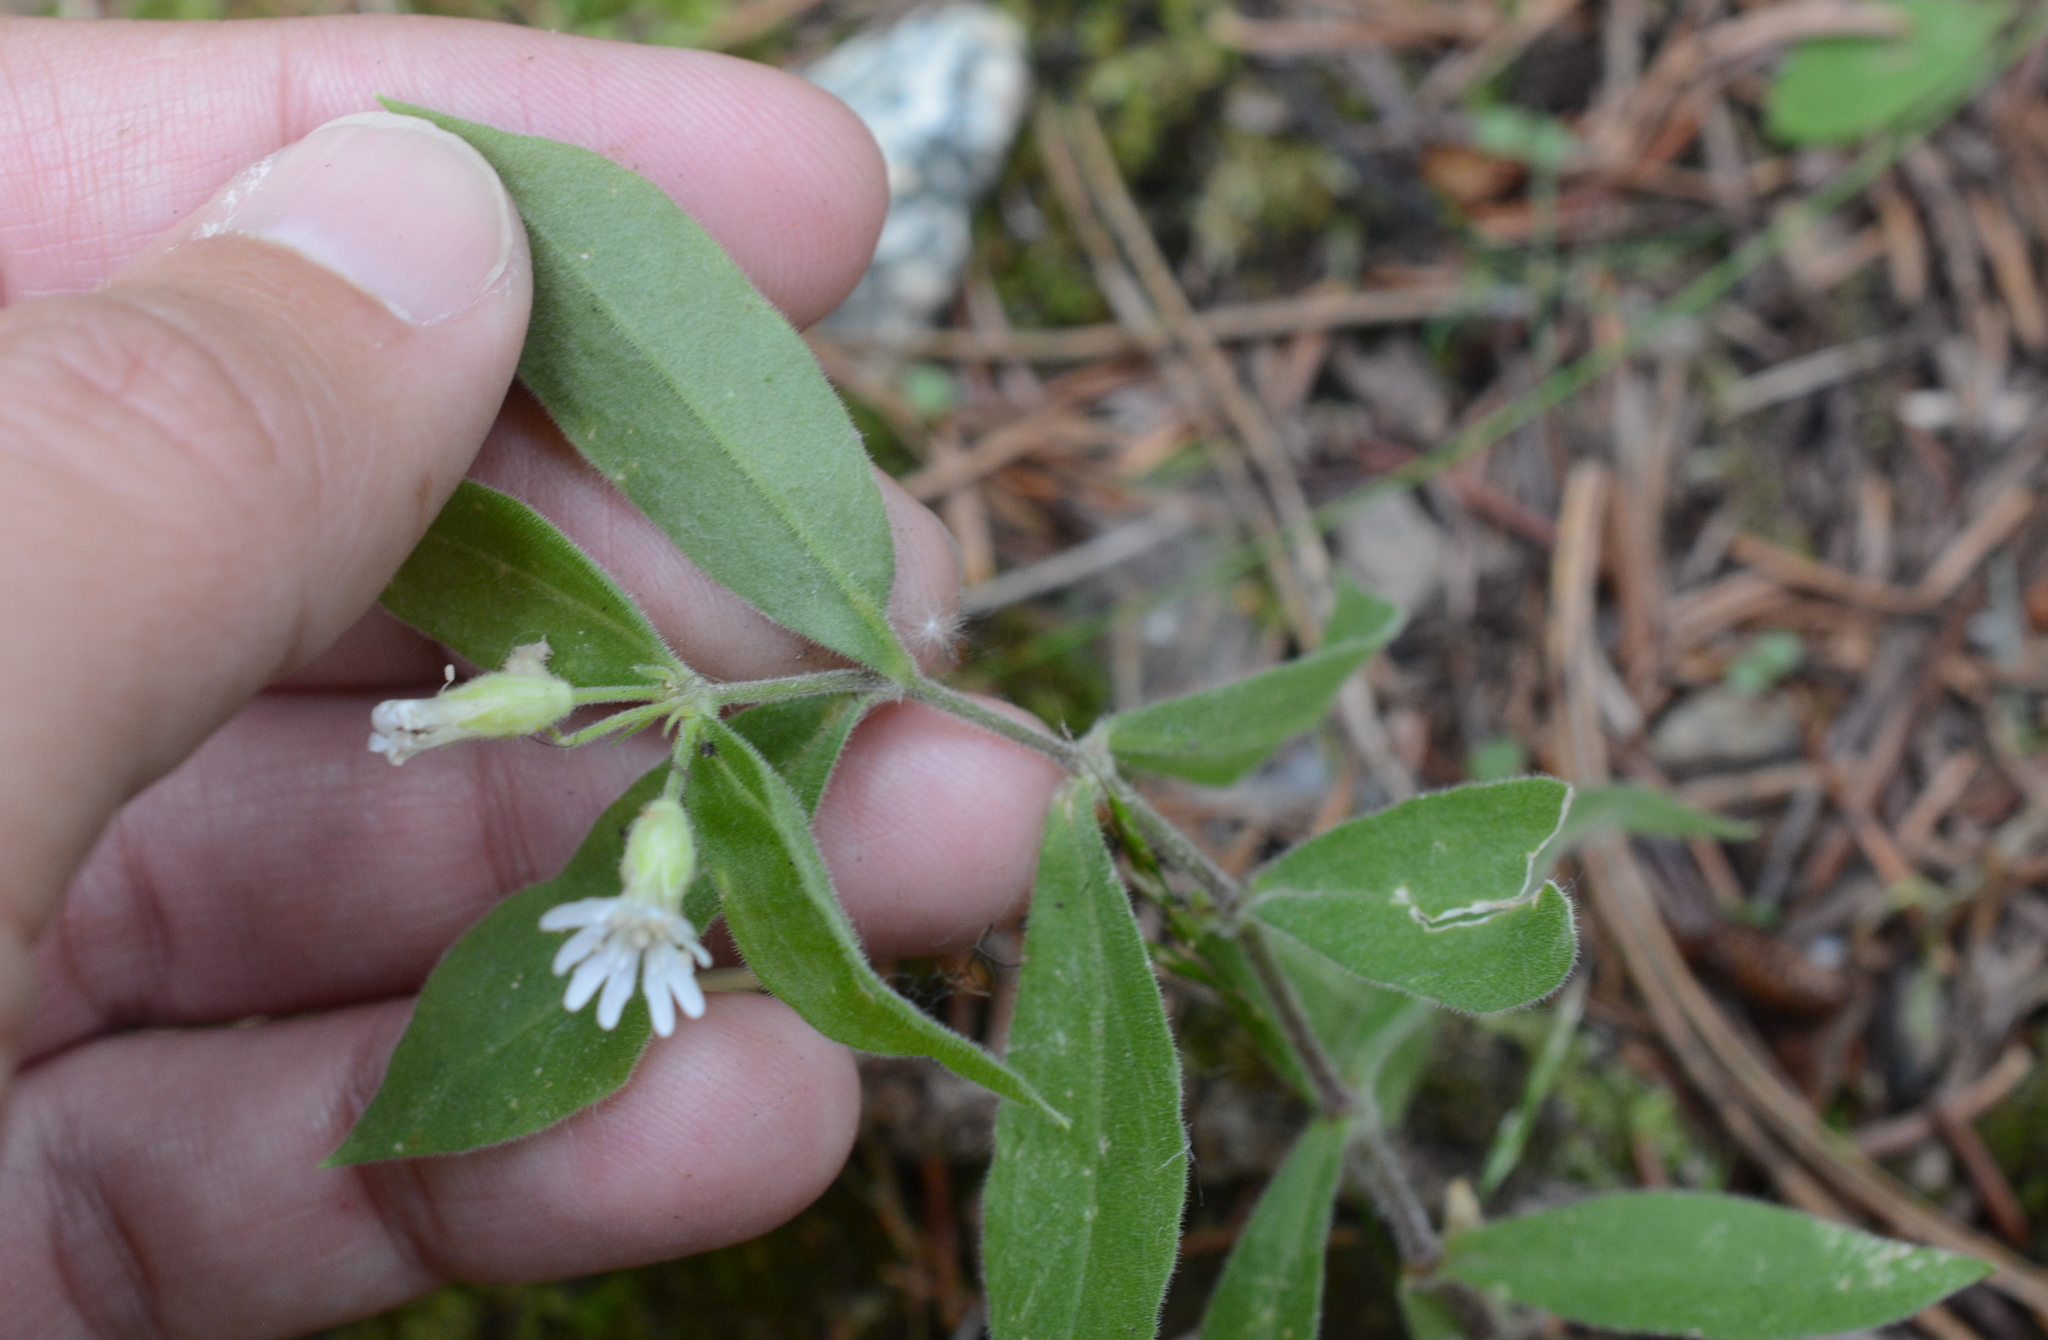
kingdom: Plantae
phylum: Tracheophyta
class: Magnoliopsida
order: Caryophyllales
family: Caryophyllaceae
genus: Silene
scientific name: Silene menziesii
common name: Menzies's catchfly
